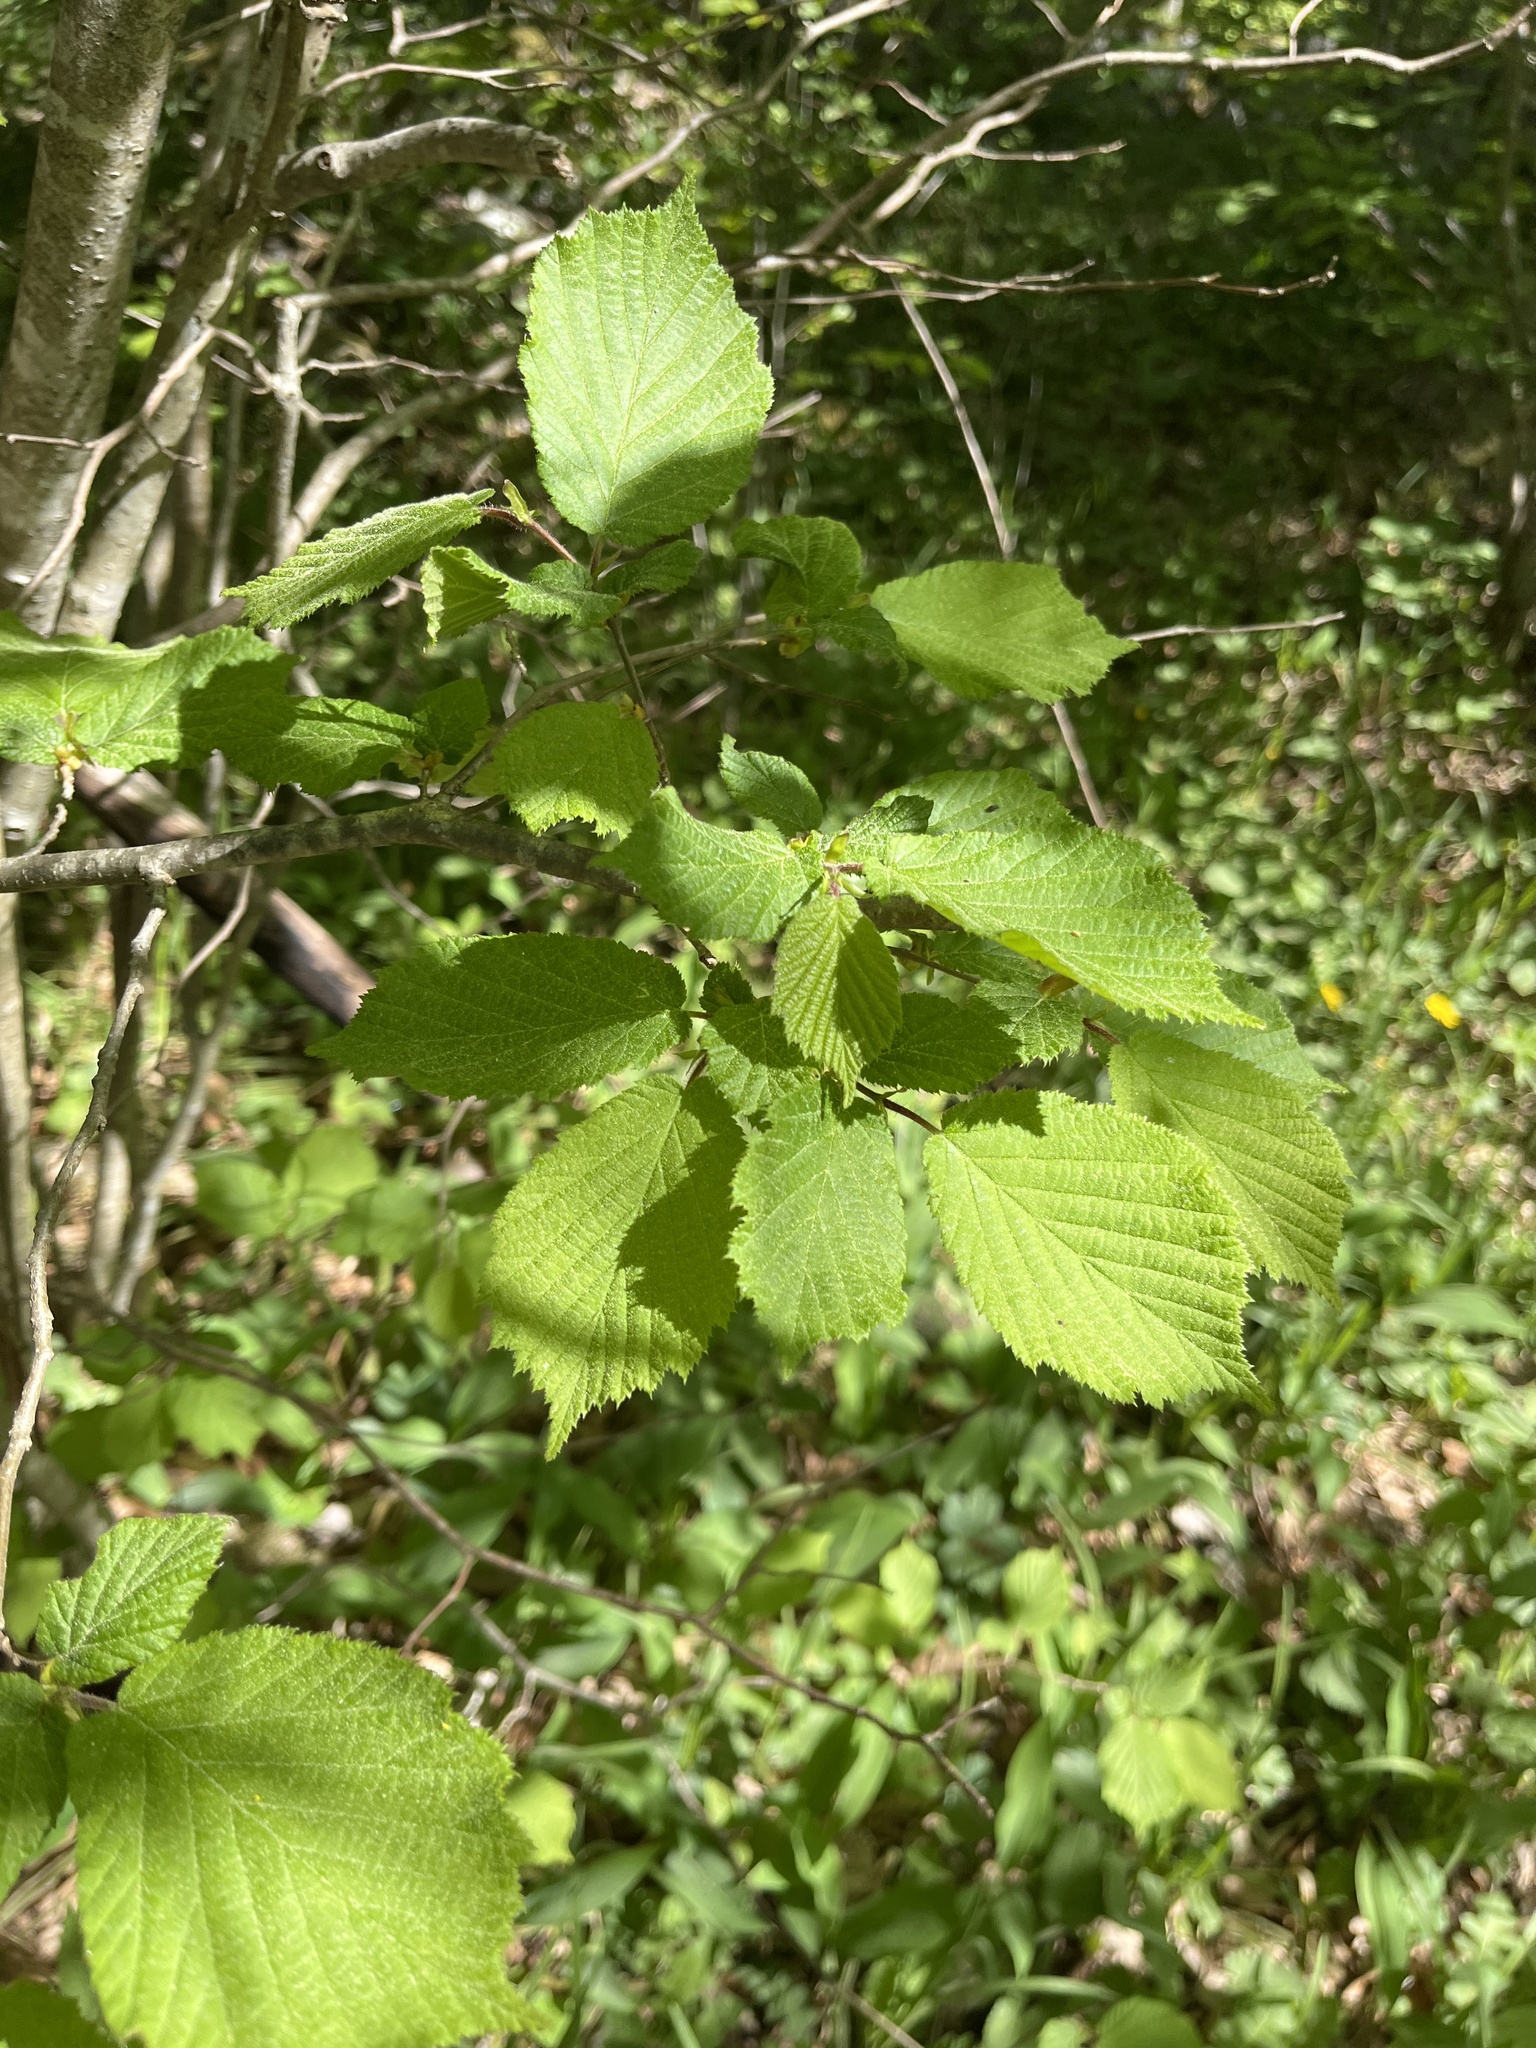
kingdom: Plantae
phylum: Tracheophyta
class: Magnoliopsida
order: Fagales
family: Betulaceae
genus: Corylus
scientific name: Corylus avellana
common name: European hazel
